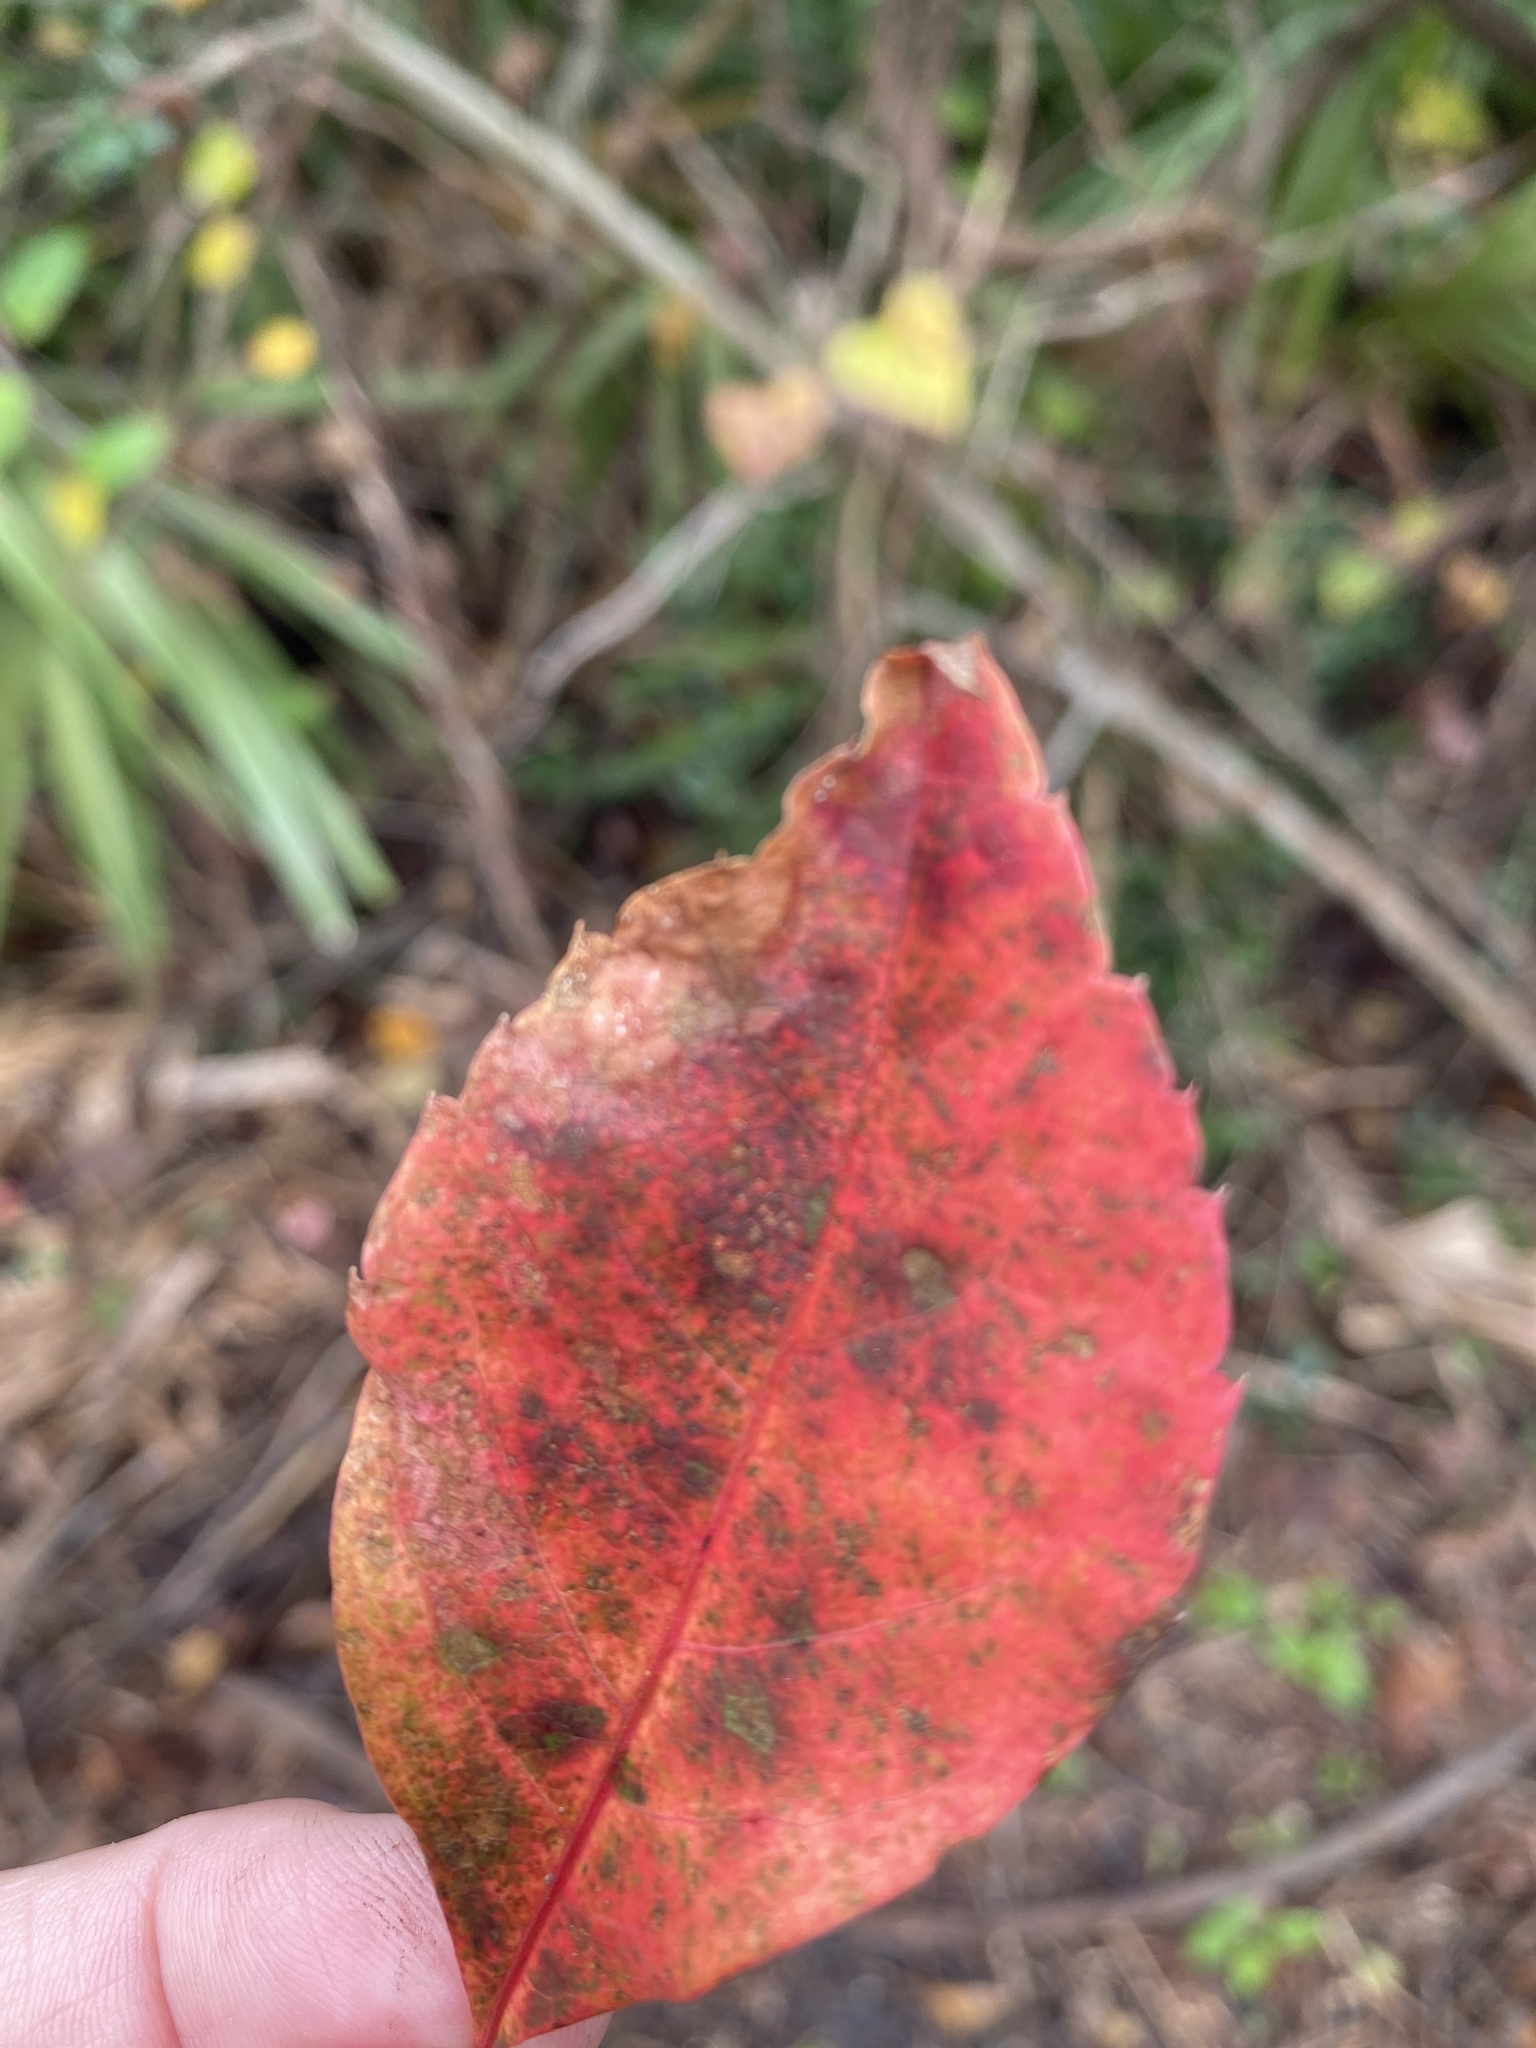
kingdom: Plantae
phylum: Tracheophyta
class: Magnoliopsida
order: Vitales
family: Vitaceae
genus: Parthenocissus
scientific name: Parthenocissus quinquefolia
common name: Virginia-creeper
